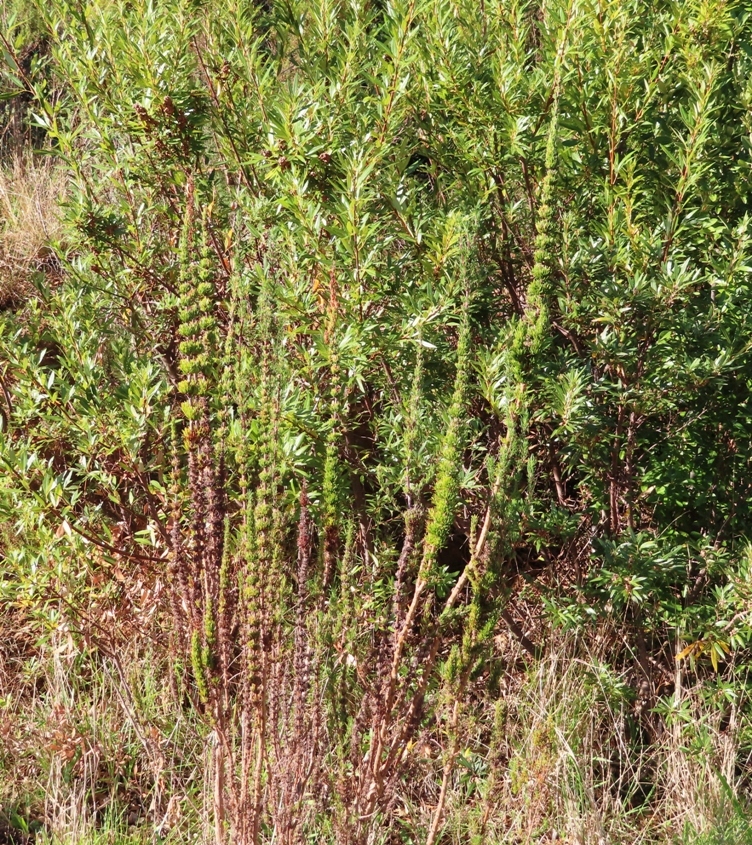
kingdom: Plantae
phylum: Tracheophyta
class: Magnoliopsida
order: Gentianales
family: Rubiaceae
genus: Anthospermum
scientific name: Anthospermum aethiopicum
